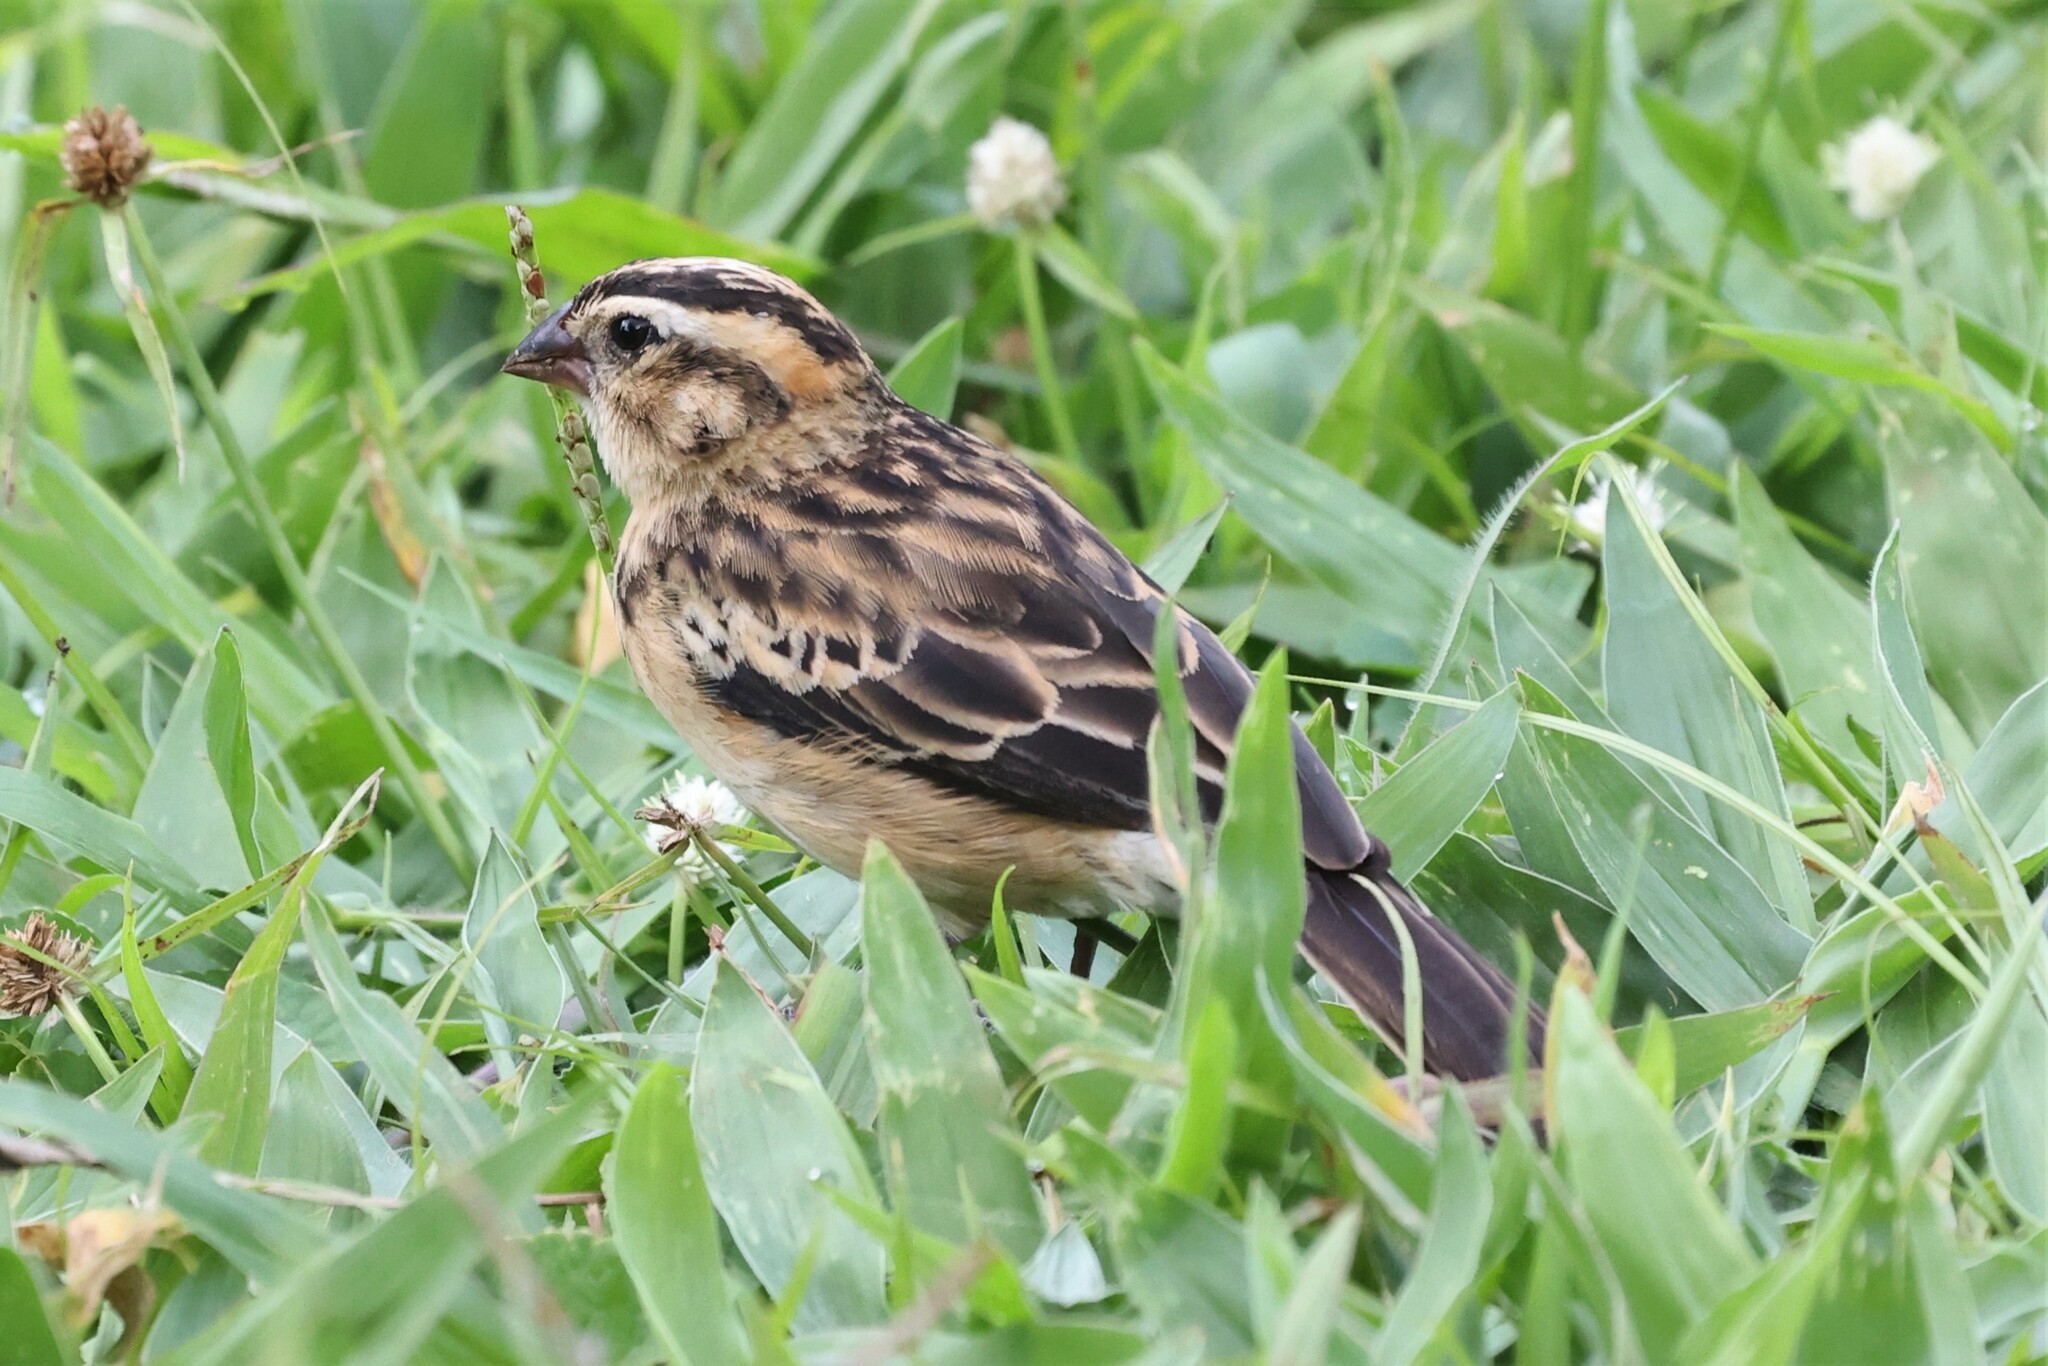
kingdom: Animalia
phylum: Chordata
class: Aves
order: Passeriformes
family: Viduidae
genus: Vidua
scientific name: Vidua macroura
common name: Pin-tailed whydah
